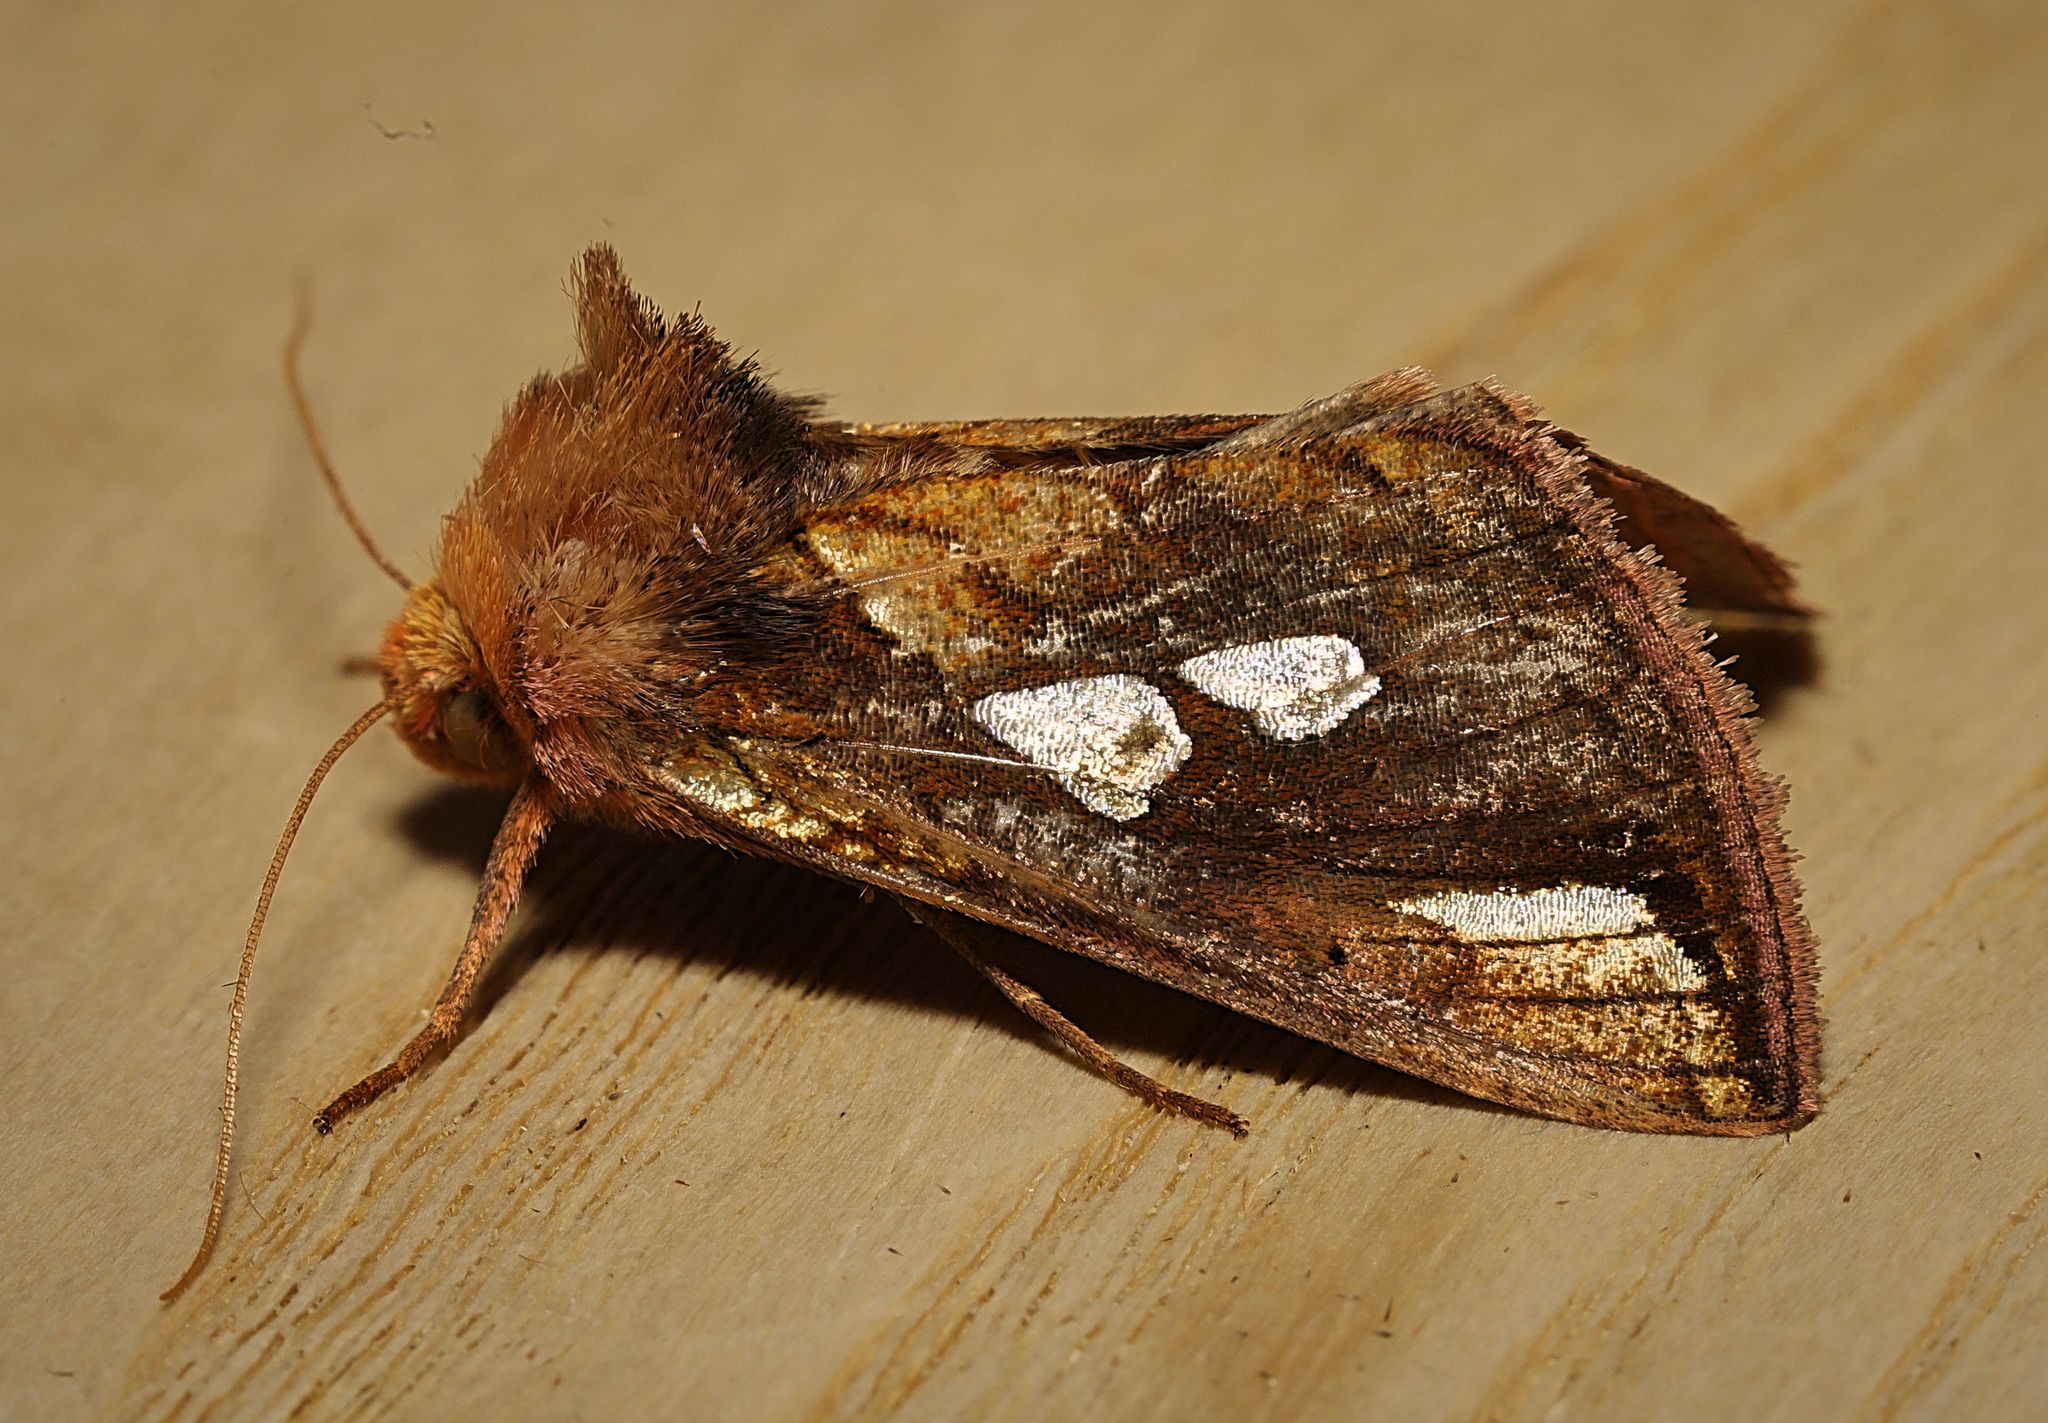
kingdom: Animalia
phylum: Arthropoda
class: Insecta
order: Lepidoptera
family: Noctuidae
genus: Plusia
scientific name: Plusia festucae
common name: Gold spot
